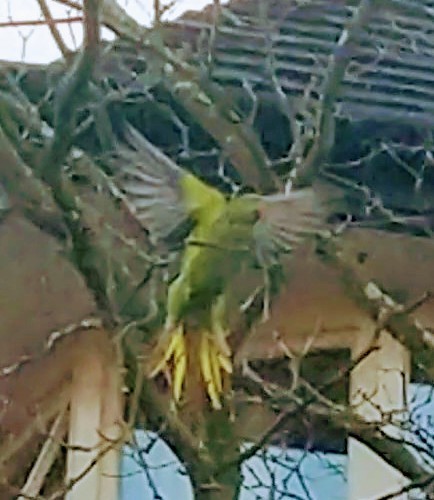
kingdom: Animalia
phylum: Chordata
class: Aves
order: Psittaciformes
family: Psittacidae
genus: Psittacula
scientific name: Psittacula krameri
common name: Rose-ringed parakeet
